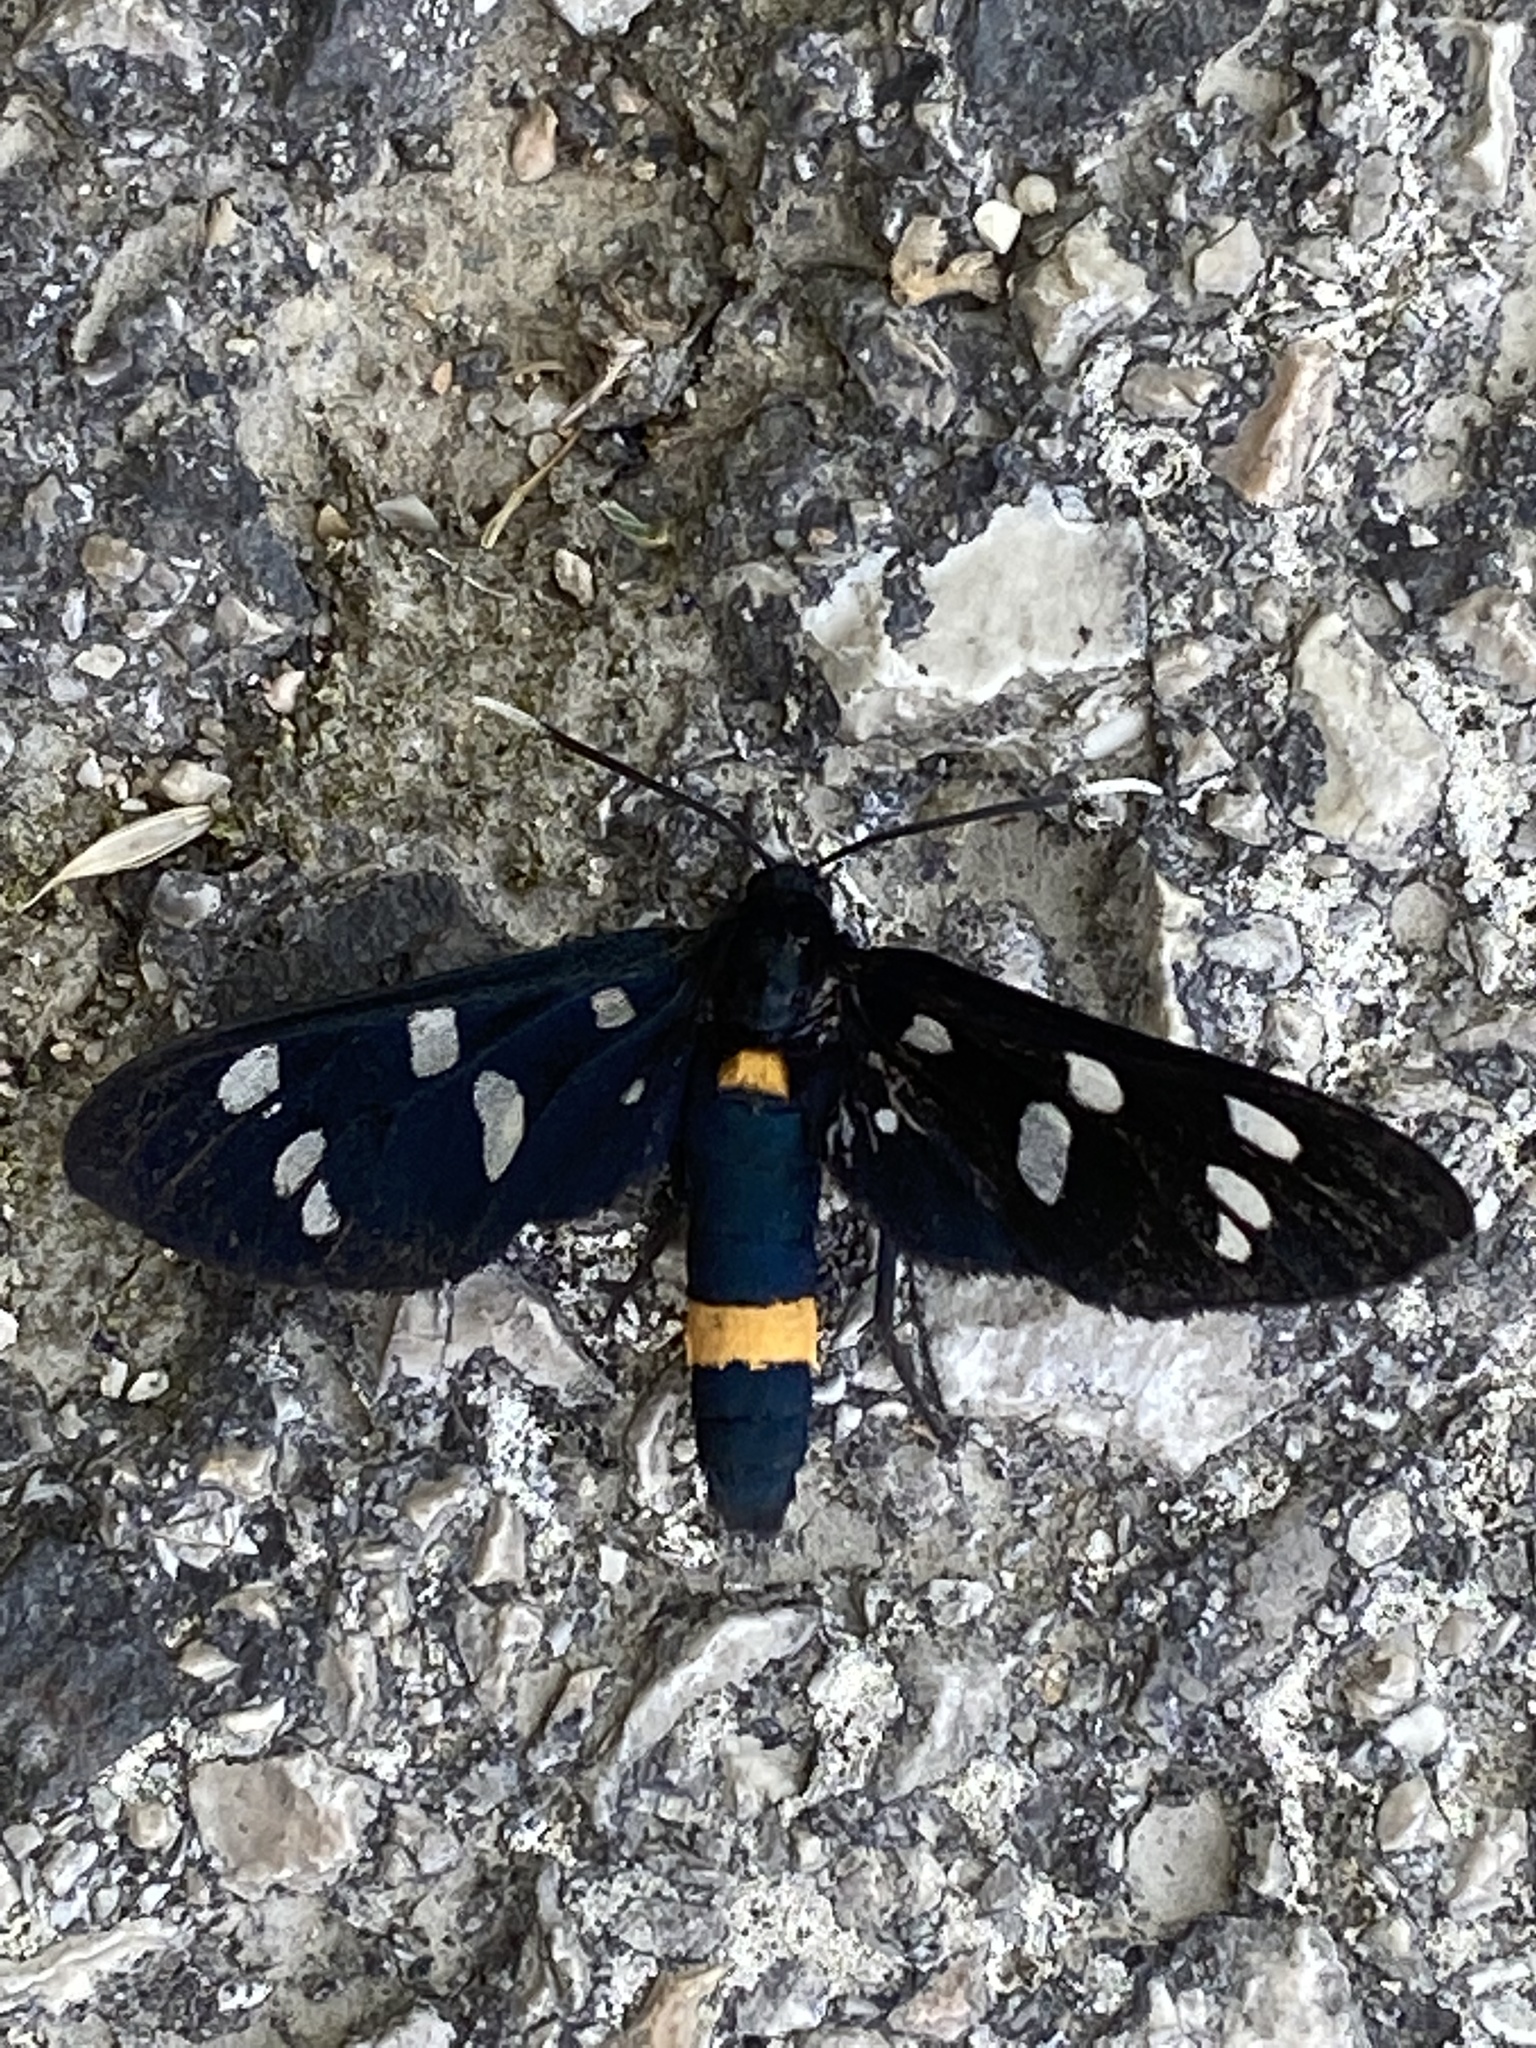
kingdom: Animalia
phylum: Arthropoda
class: Insecta
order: Lepidoptera
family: Erebidae
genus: Amata
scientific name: Amata phegea
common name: Nine-spotted
